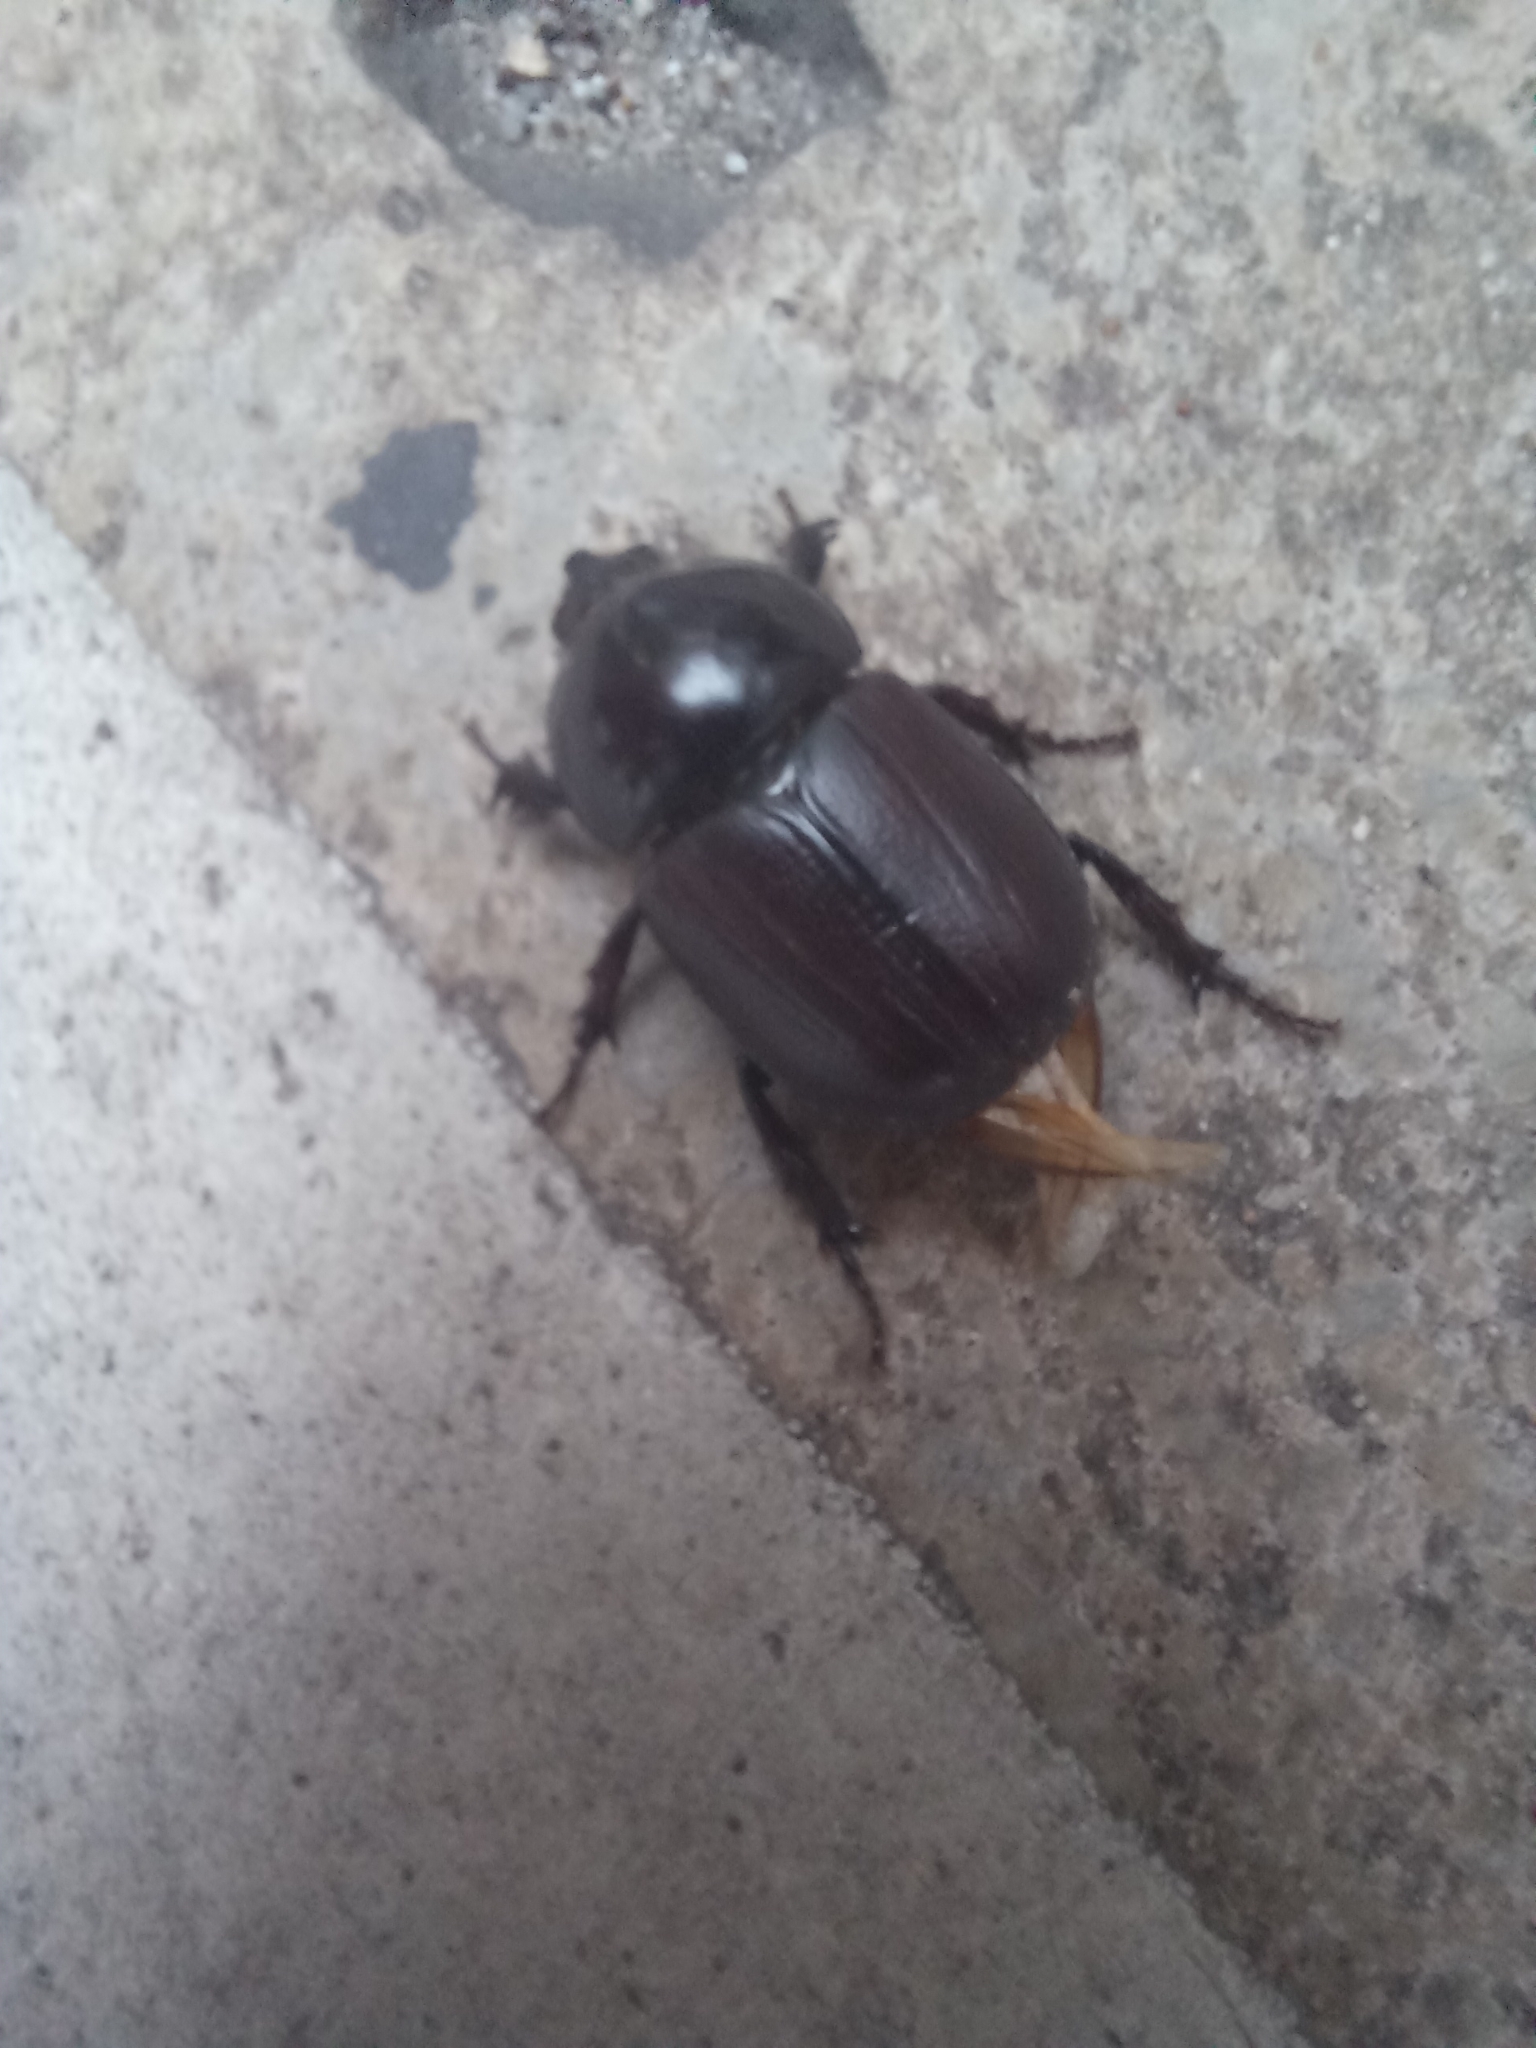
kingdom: Animalia
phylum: Arthropoda
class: Insecta
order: Coleoptera
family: Scarabaeidae
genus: Diloboderus
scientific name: Diloboderus abderus
